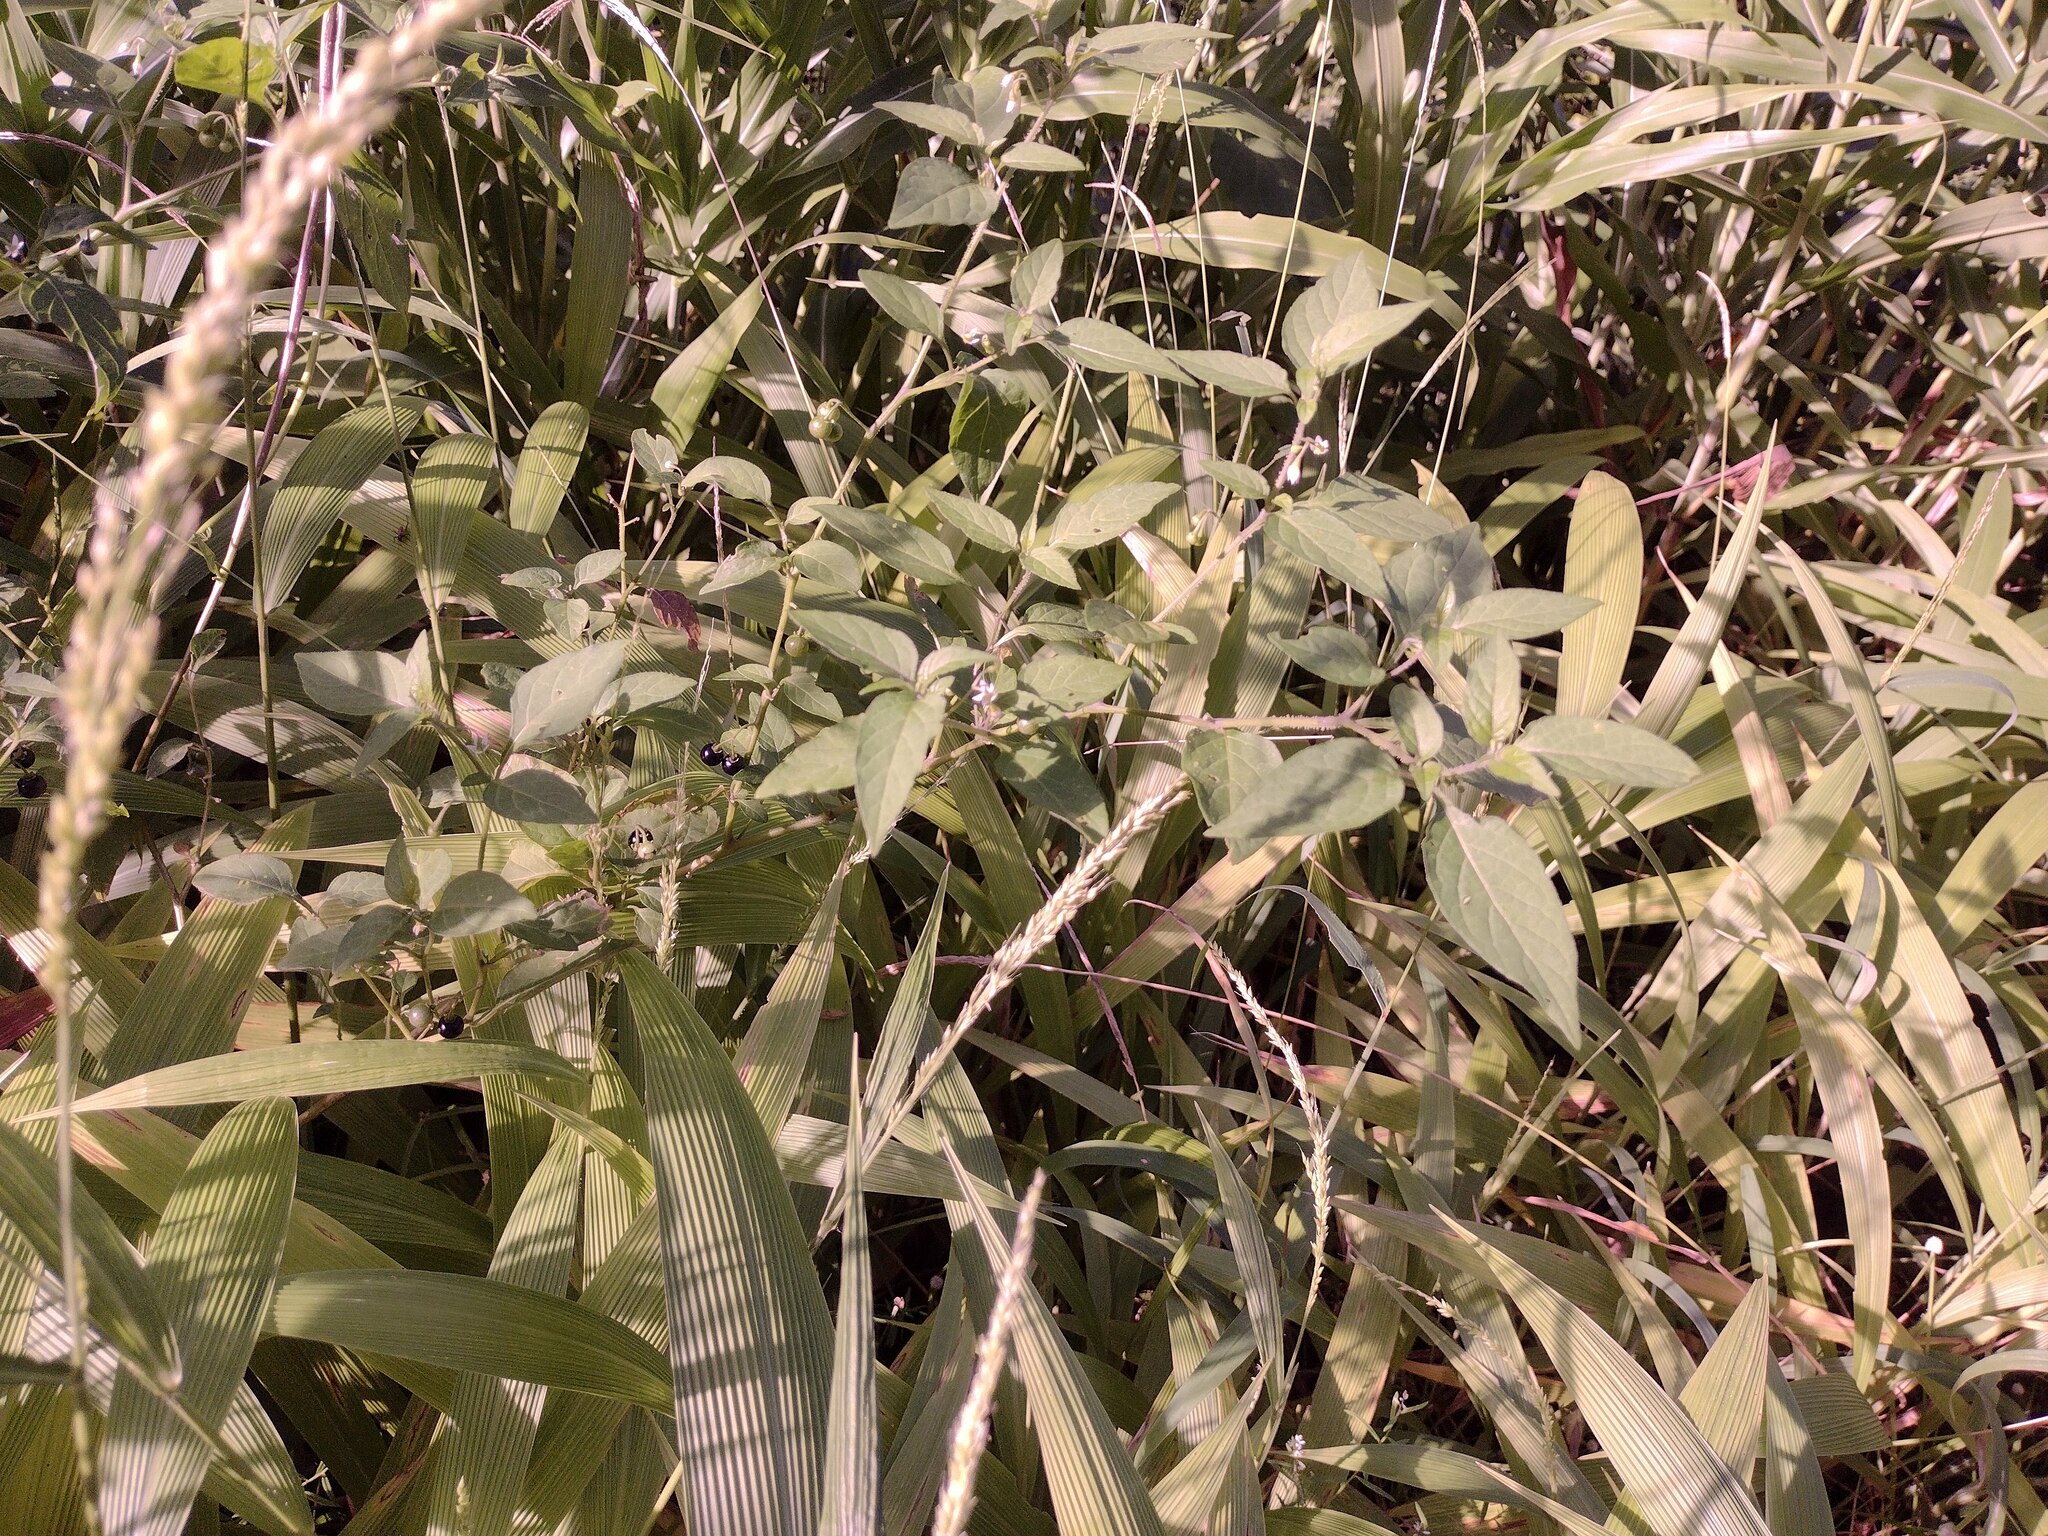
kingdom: Plantae
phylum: Tracheophyta
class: Magnoliopsida
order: Solanales
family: Solanaceae
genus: Solanum
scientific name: Solanum americanum
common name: American black nightshade
